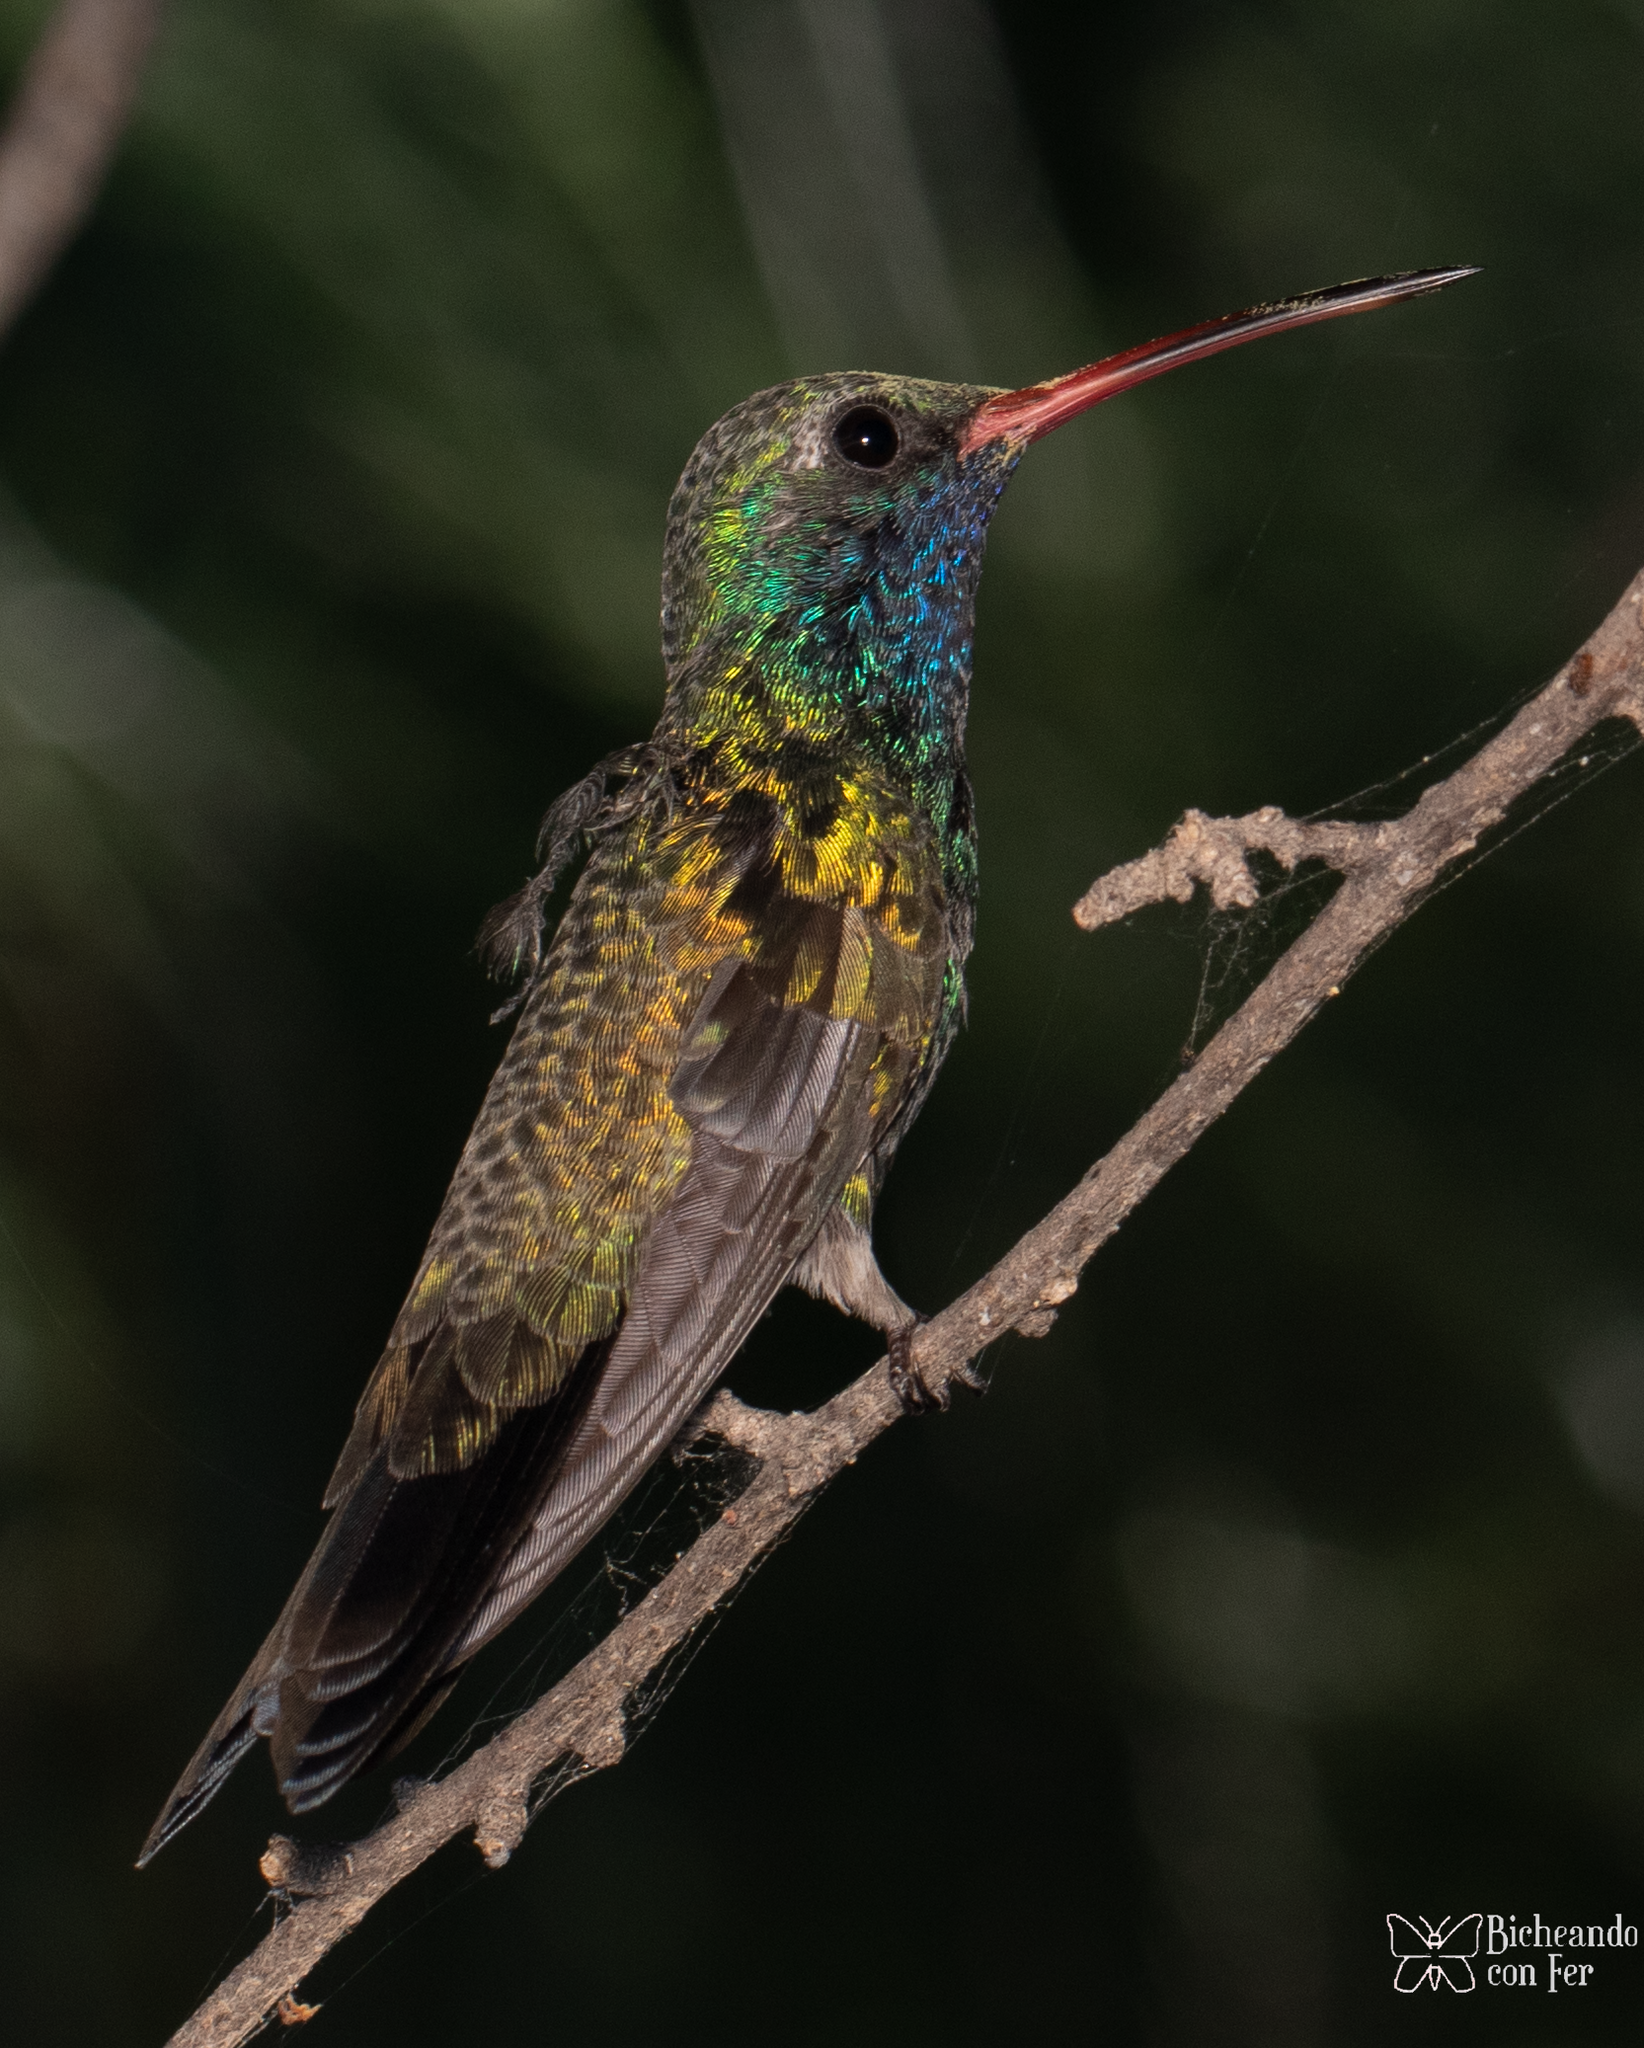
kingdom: Animalia
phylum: Chordata
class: Aves
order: Apodiformes
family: Trochilidae
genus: Cynanthus
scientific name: Cynanthus latirostris
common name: Broad-billed hummingbird
